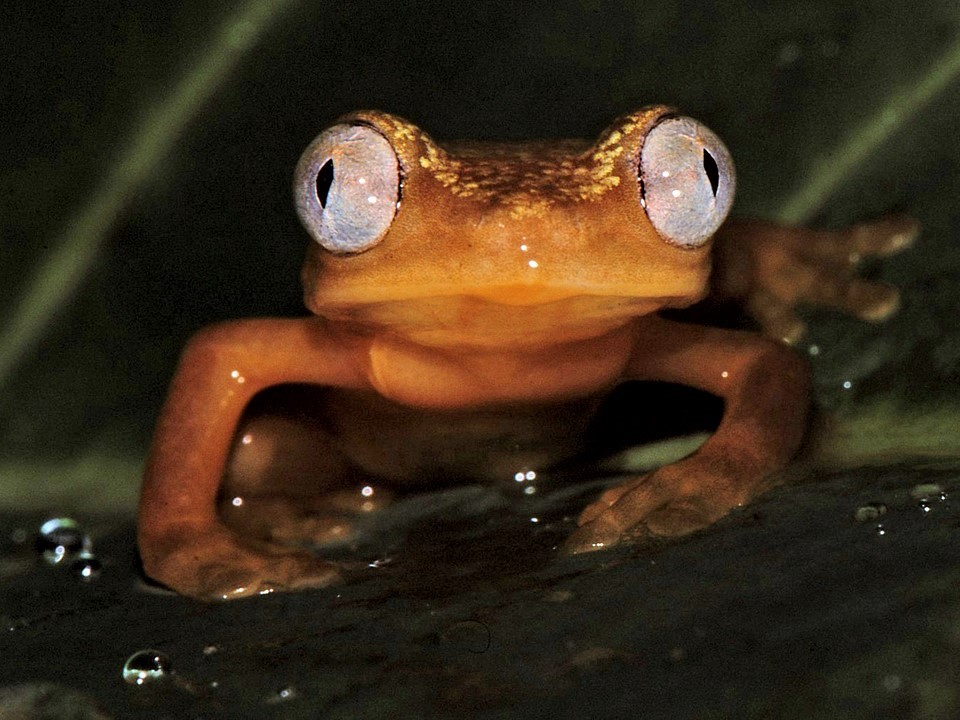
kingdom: Animalia
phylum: Chordata
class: Amphibia
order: Anura
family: Hyperoliidae
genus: Opisthothylax
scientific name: Opisthothylax immaculatus
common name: Gray-eyed frog
